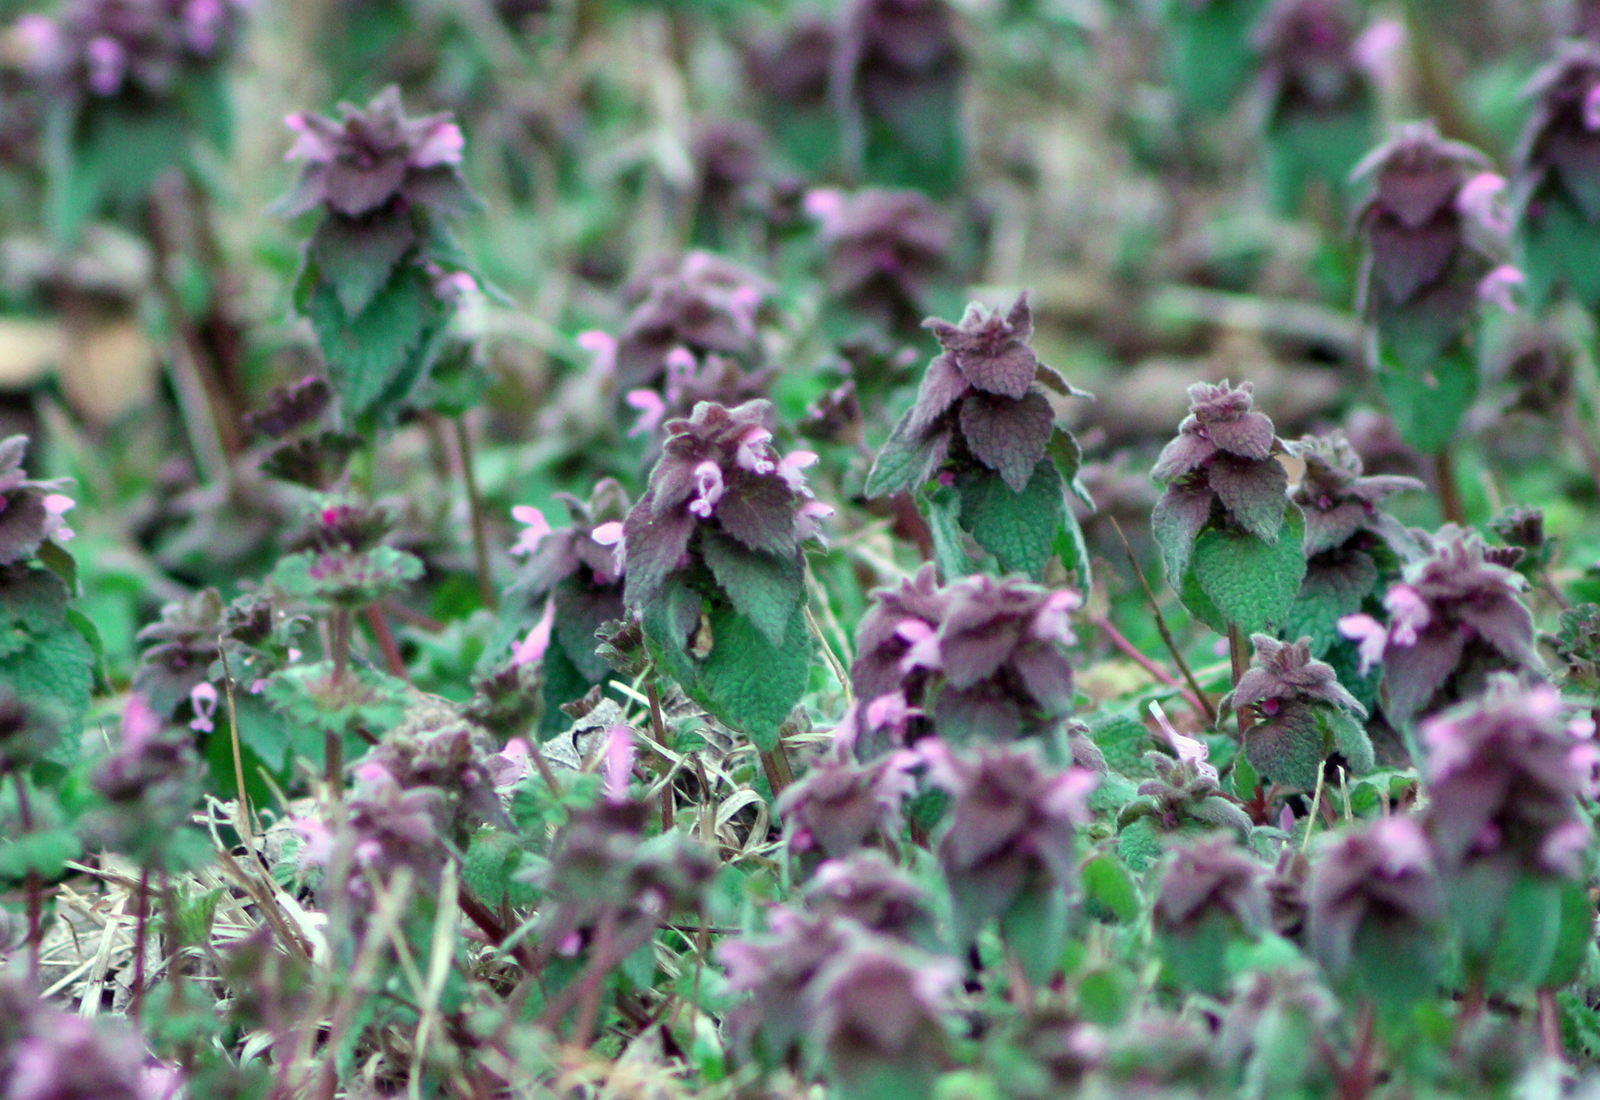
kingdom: Plantae
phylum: Tracheophyta
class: Magnoliopsida
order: Lamiales
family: Lamiaceae
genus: Lamium
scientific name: Lamium purpureum
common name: Red dead-nettle
